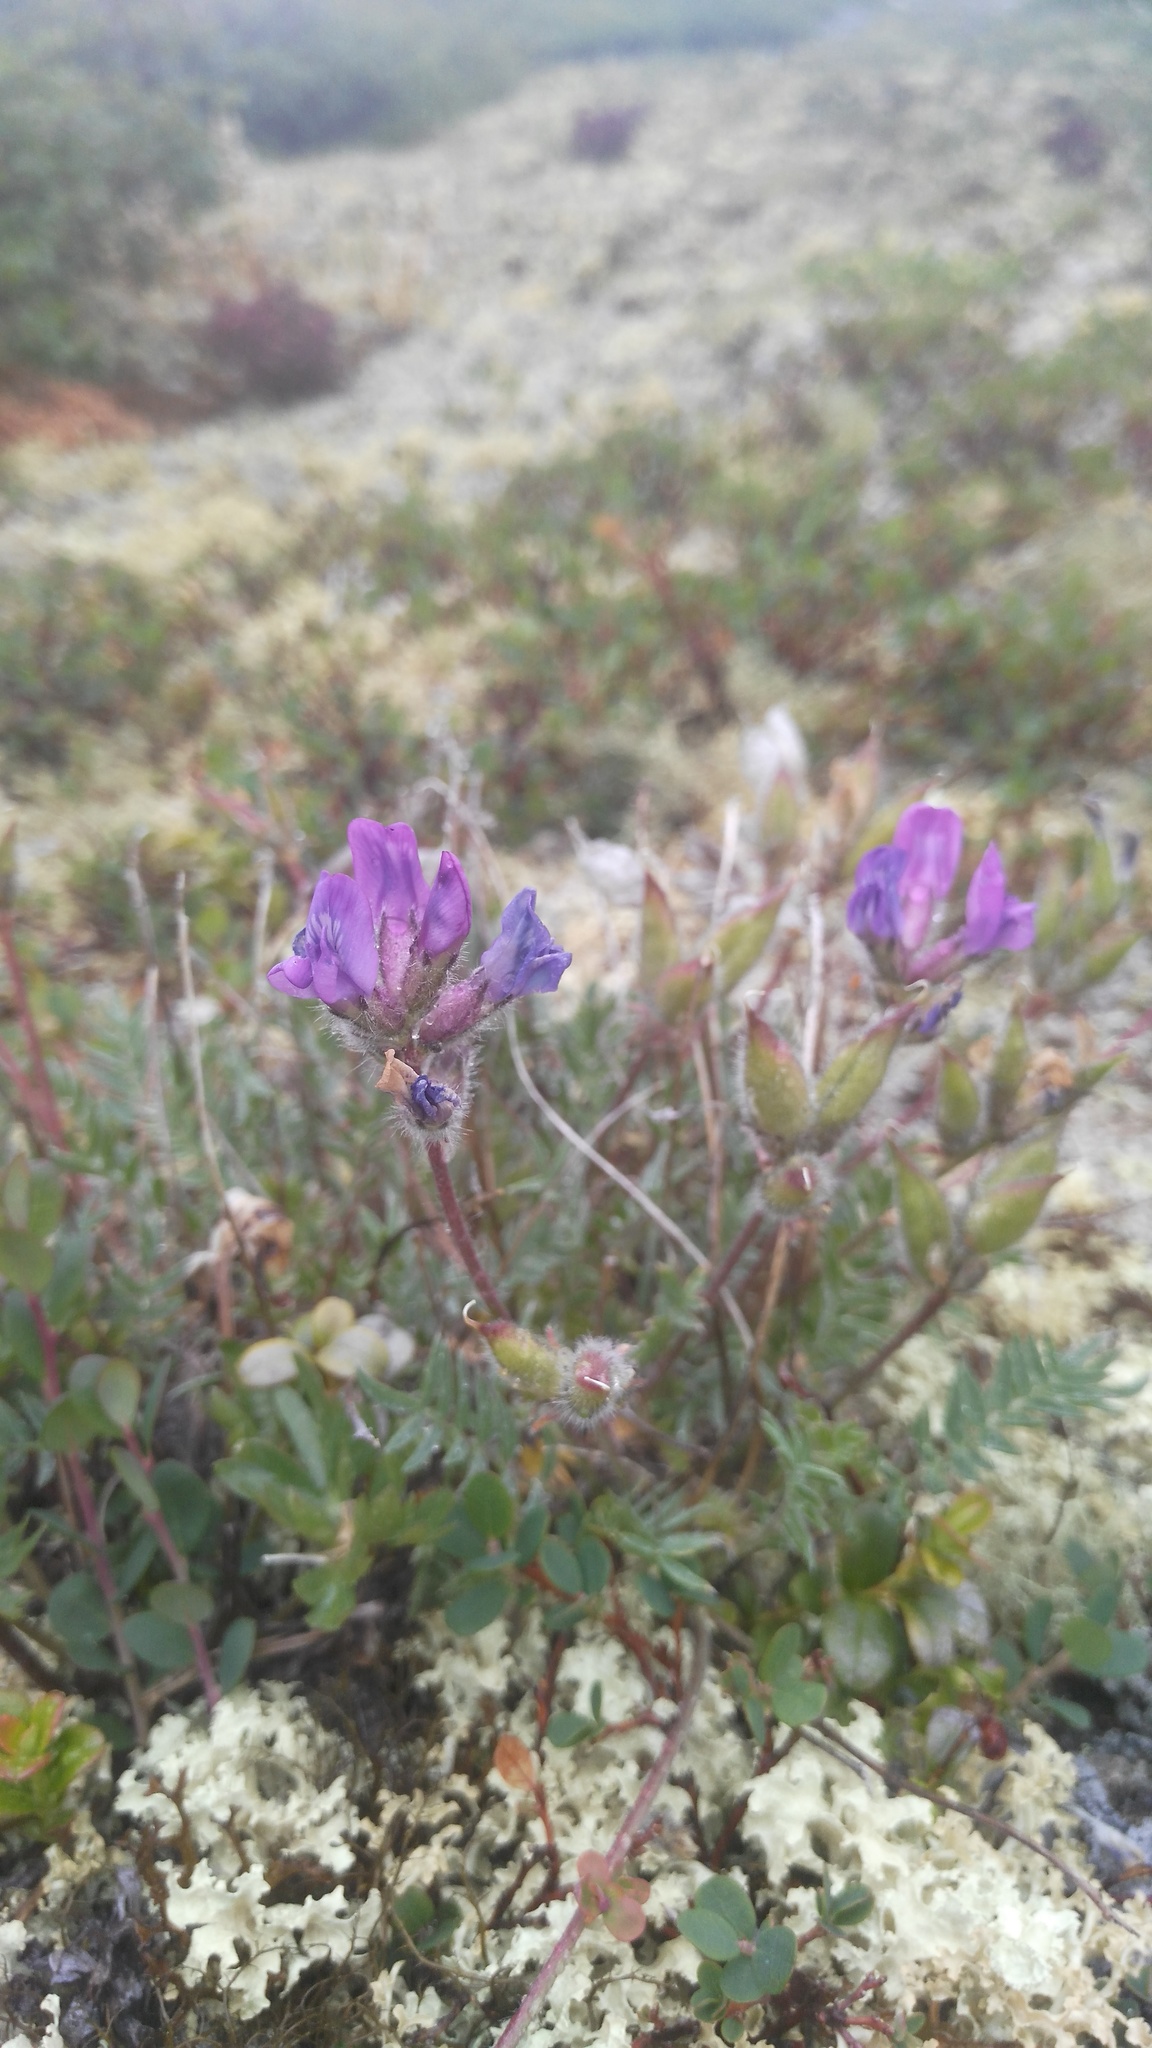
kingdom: Plantae
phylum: Tracheophyta
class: Magnoliopsida
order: Fabales
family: Fabaceae
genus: Oxytropis
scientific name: Oxytropis alpicola
